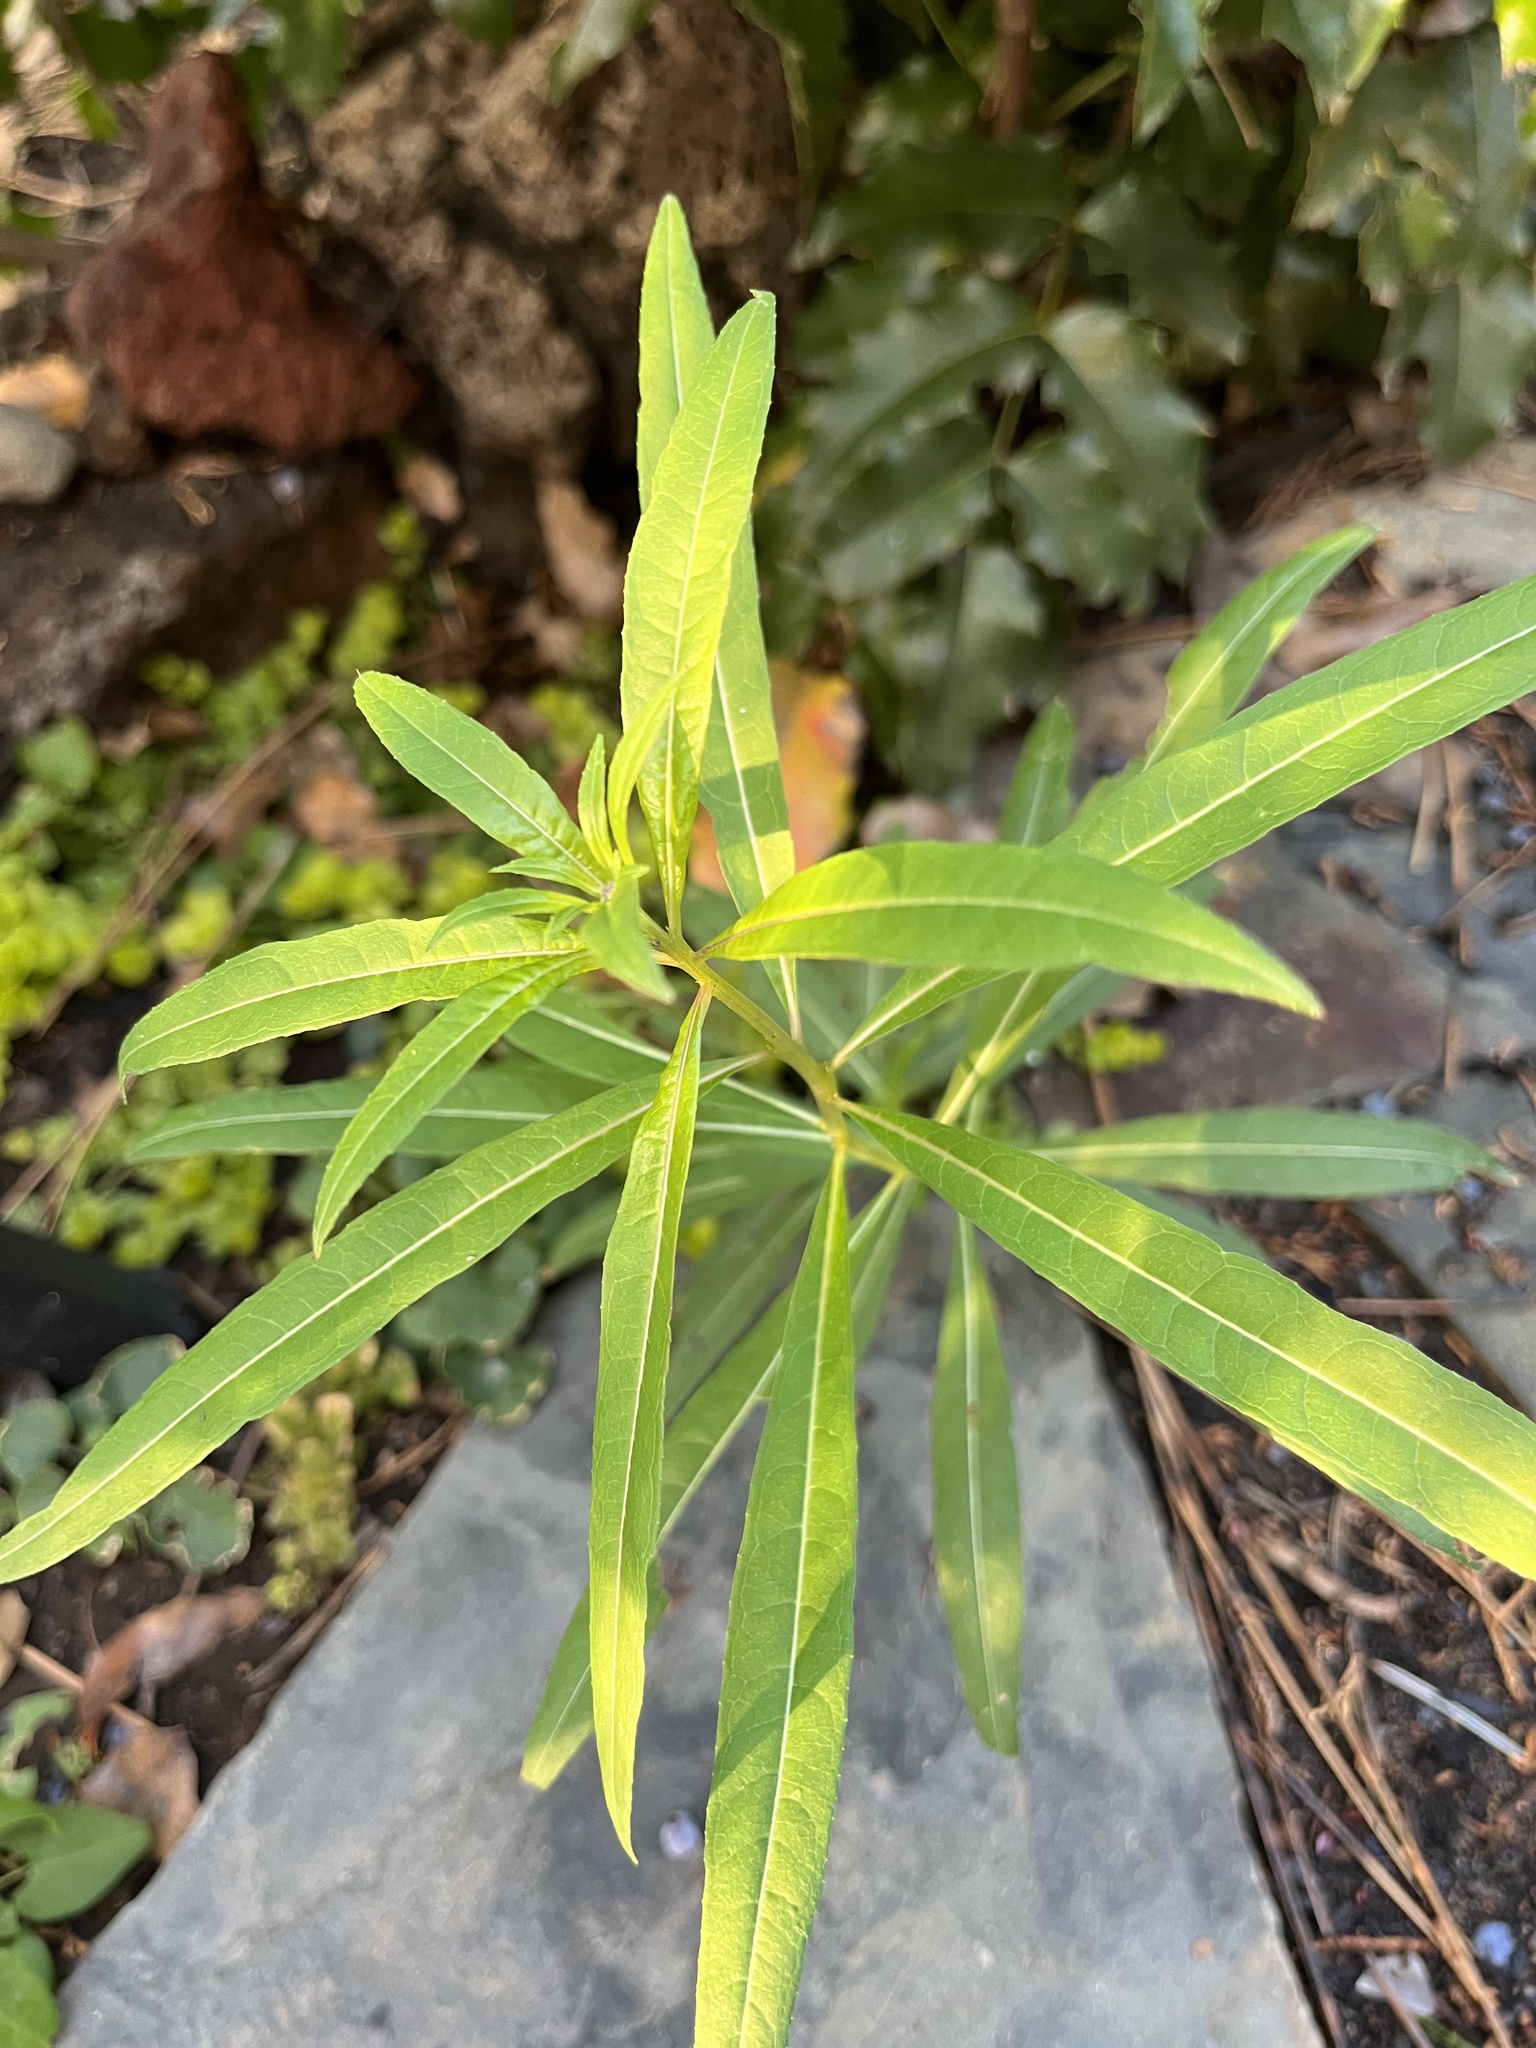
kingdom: Plantae
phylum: Tracheophyta
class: Magnoliopsida
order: Myrtales
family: Onagraceae
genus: Chamaenerion
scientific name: Chamaenerion angustifolium
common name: Fireweed
